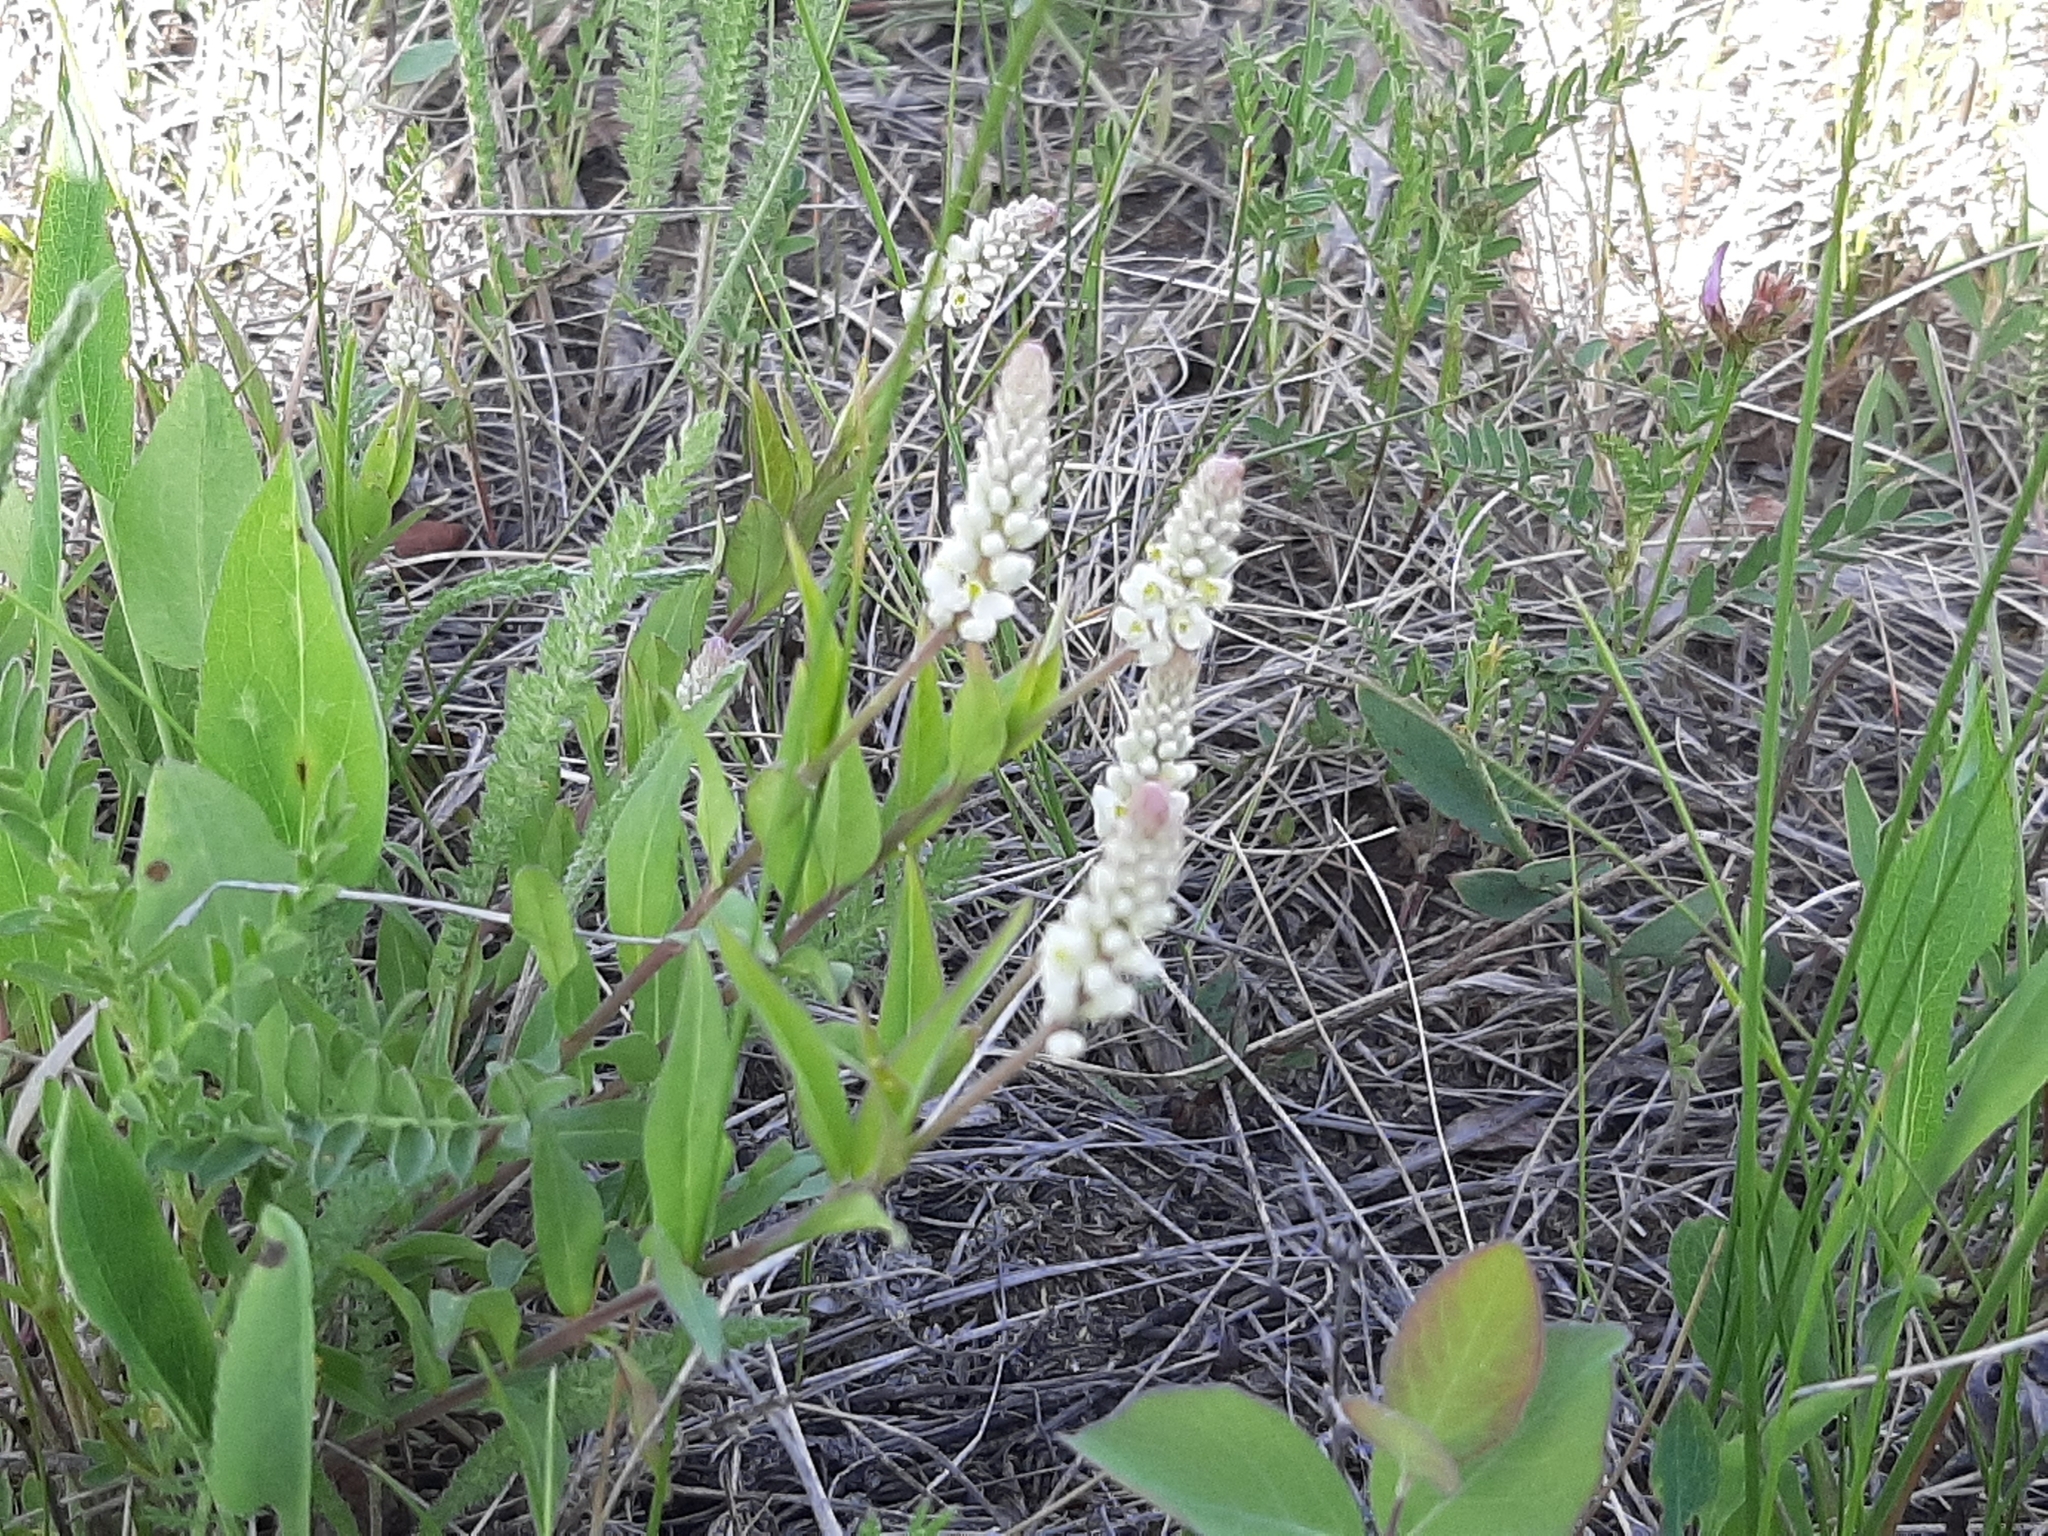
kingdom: Plantae
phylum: Tracheophyta
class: Magnoliopsida
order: Fabales
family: Polygalaceae
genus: Polygala
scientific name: Polygala senega
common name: Seneca snakeroot
